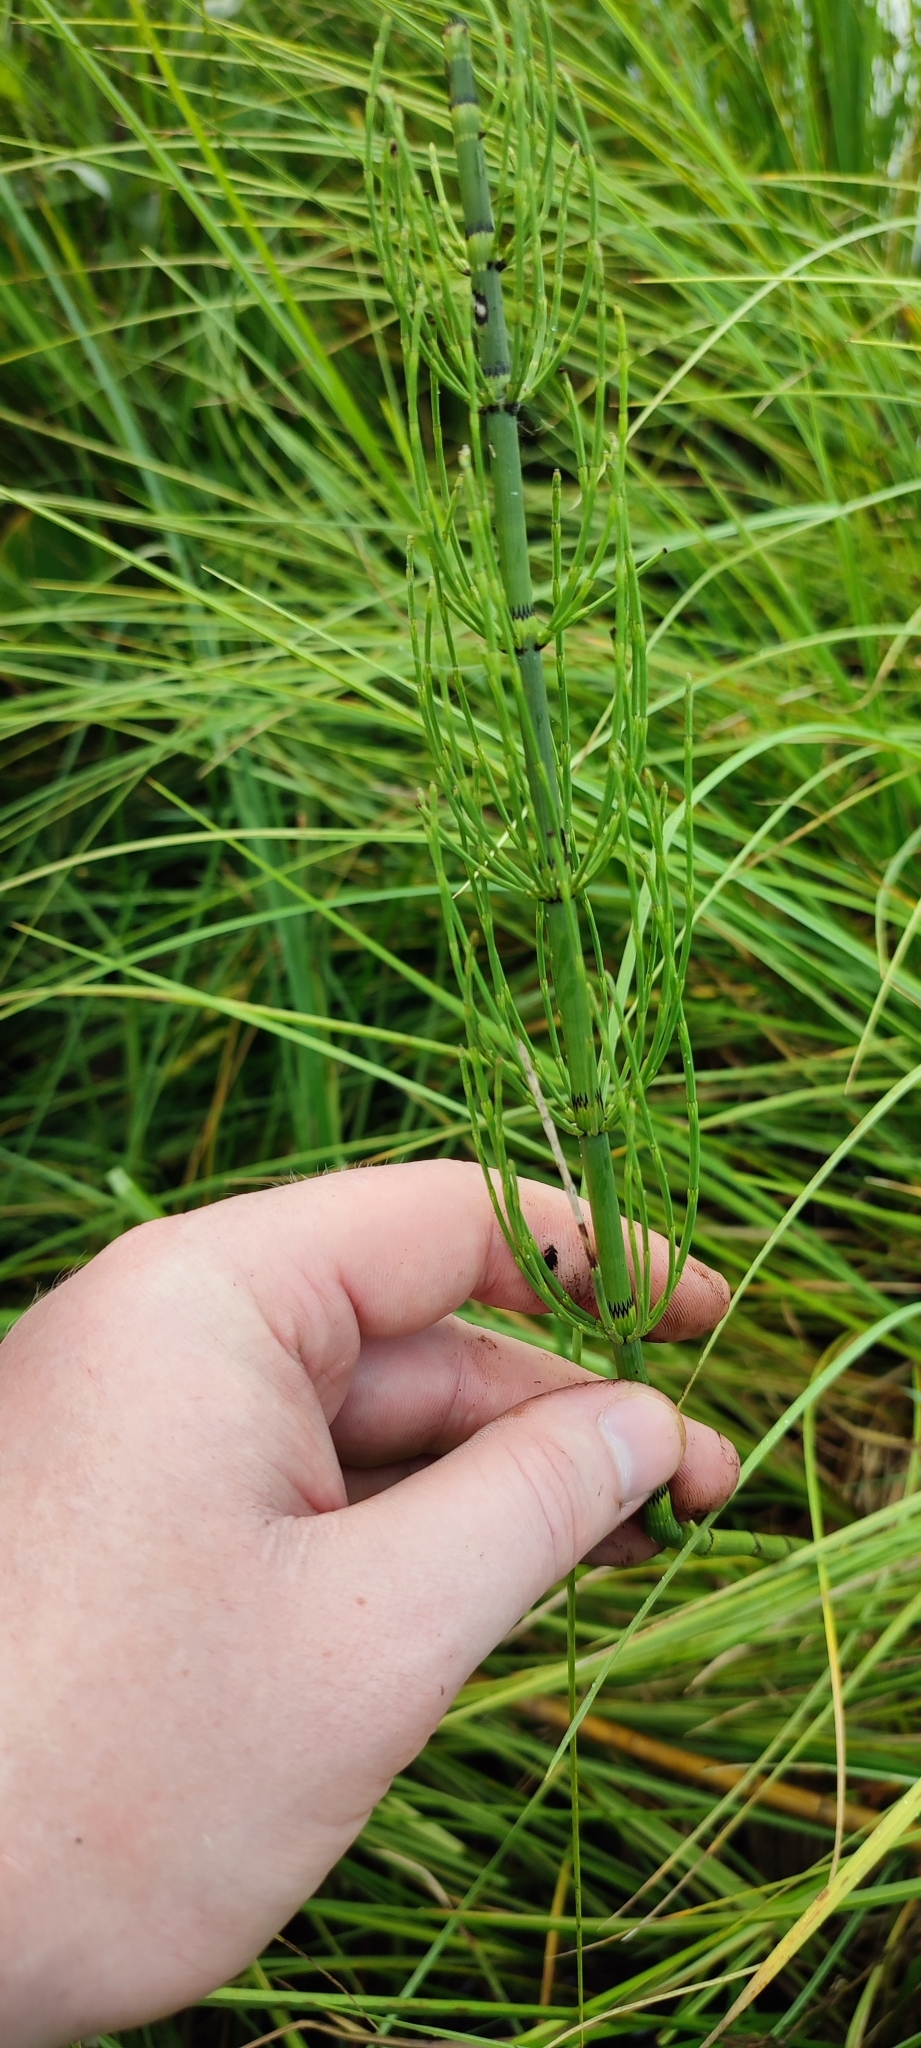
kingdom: Plantae
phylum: Tracheophyta
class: Polypodiopsida
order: Equisetales
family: Equisetaceae
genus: Equisetum
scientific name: Equisetum fluviatile
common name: Water horsetail
